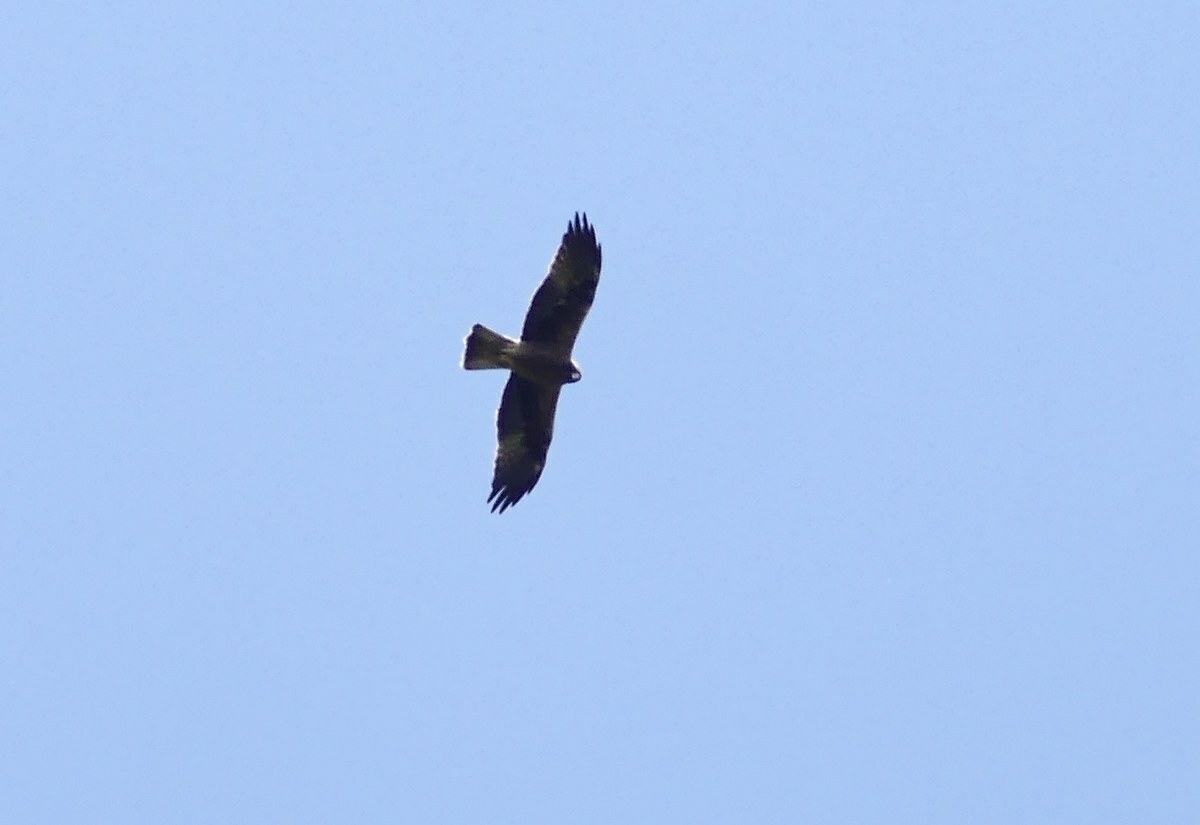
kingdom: Animalia
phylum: Chordata
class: Aves
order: Accipitriformes
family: Accipitridae
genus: Milvus
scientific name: Milvus migrans
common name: Black kite
